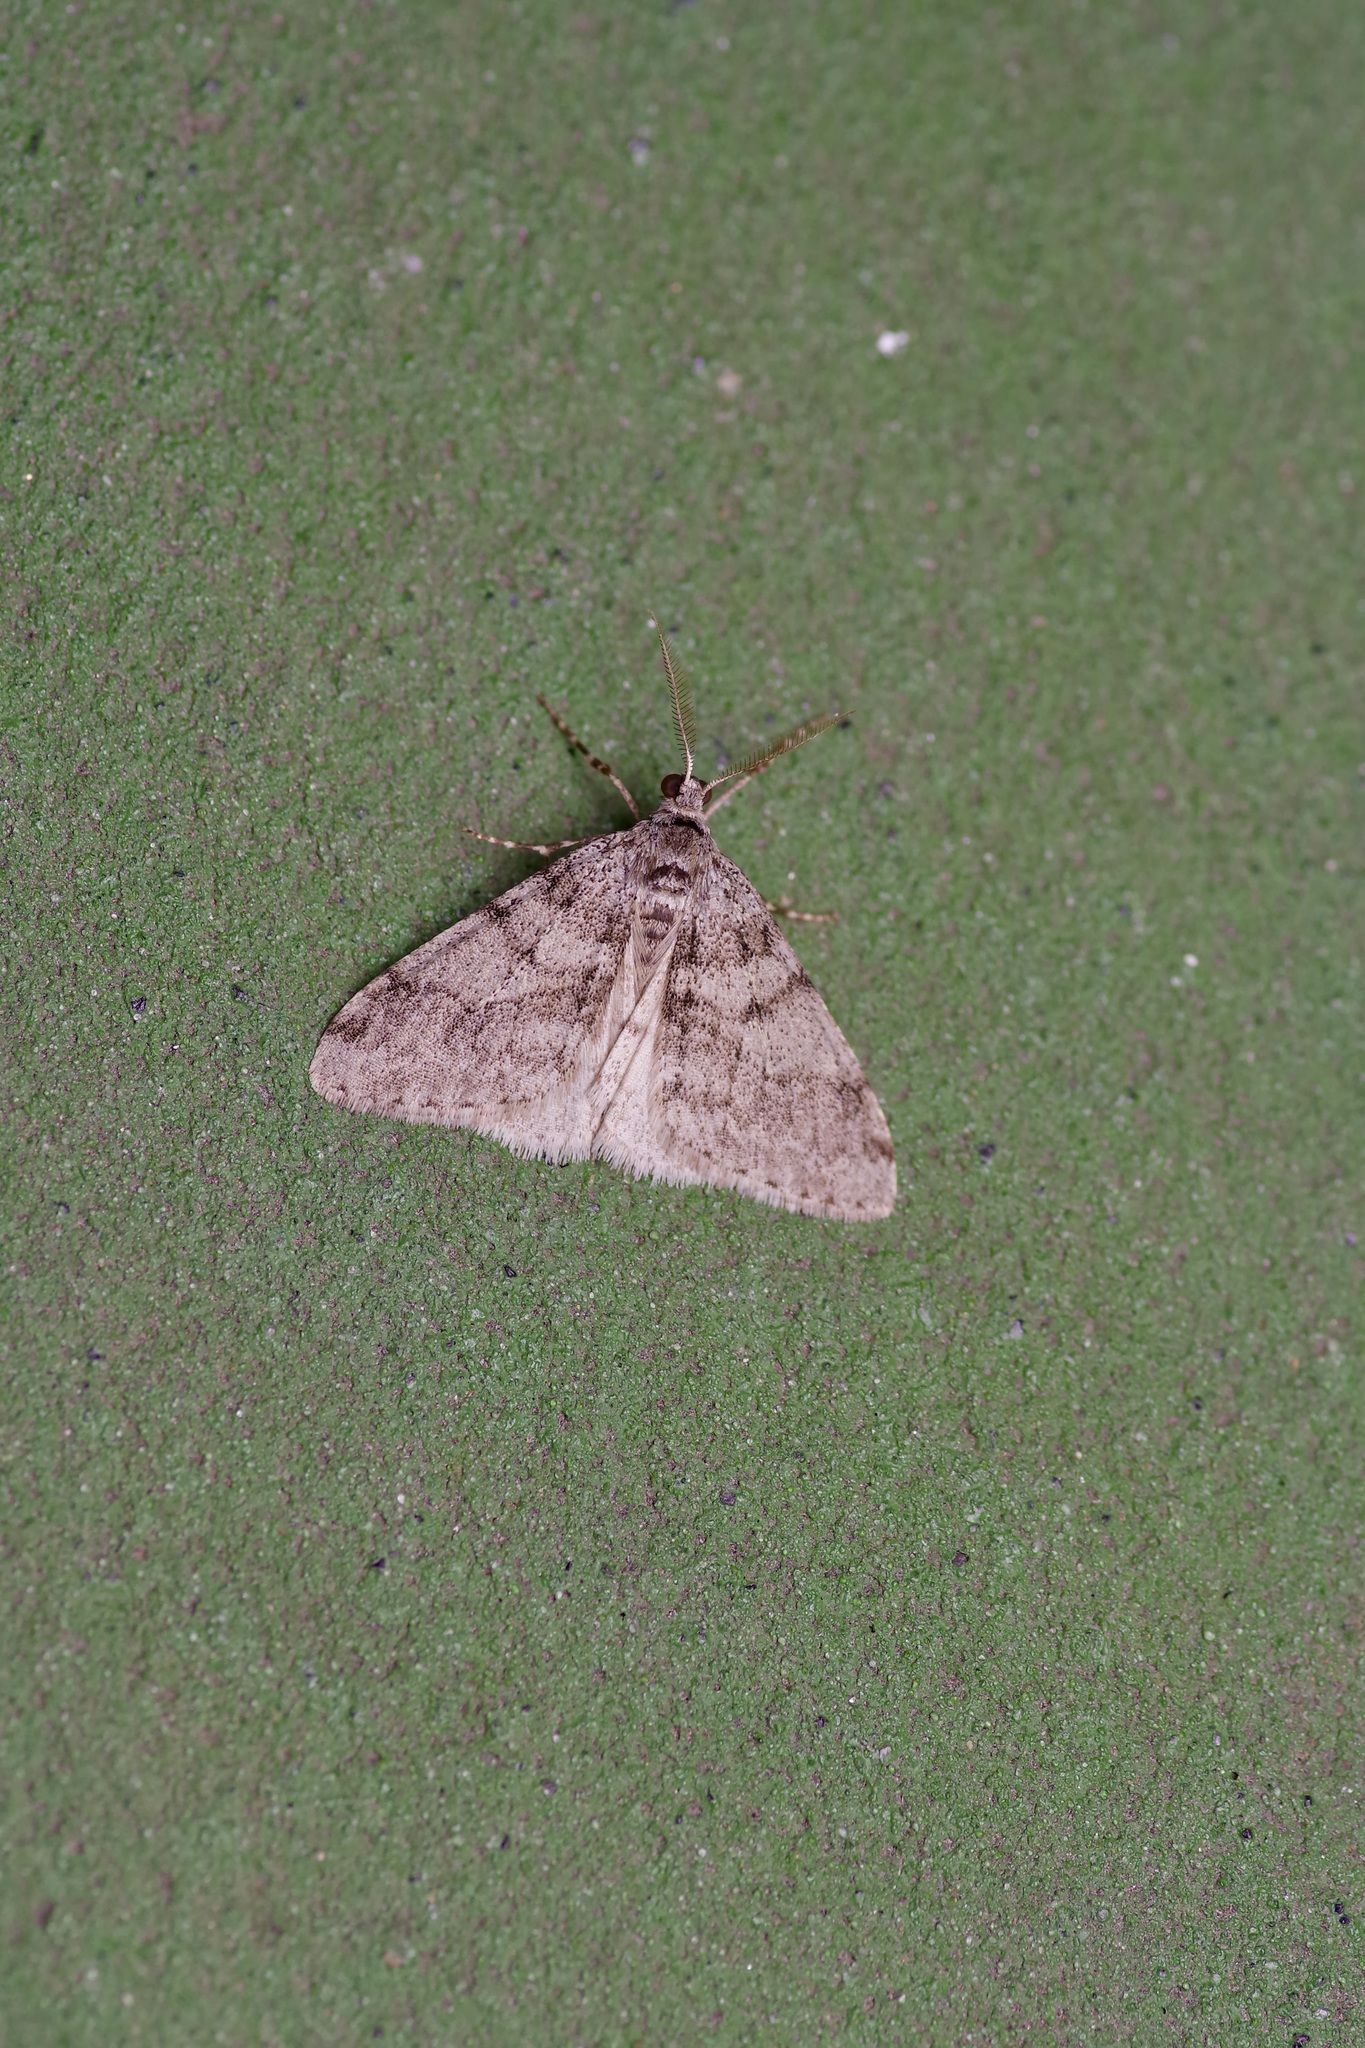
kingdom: Animalia
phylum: Arthropoda
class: Insecta
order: Lepidoptera
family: Geometridae
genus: Phigalia
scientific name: Phigalia strigataria
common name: Small phigalia
